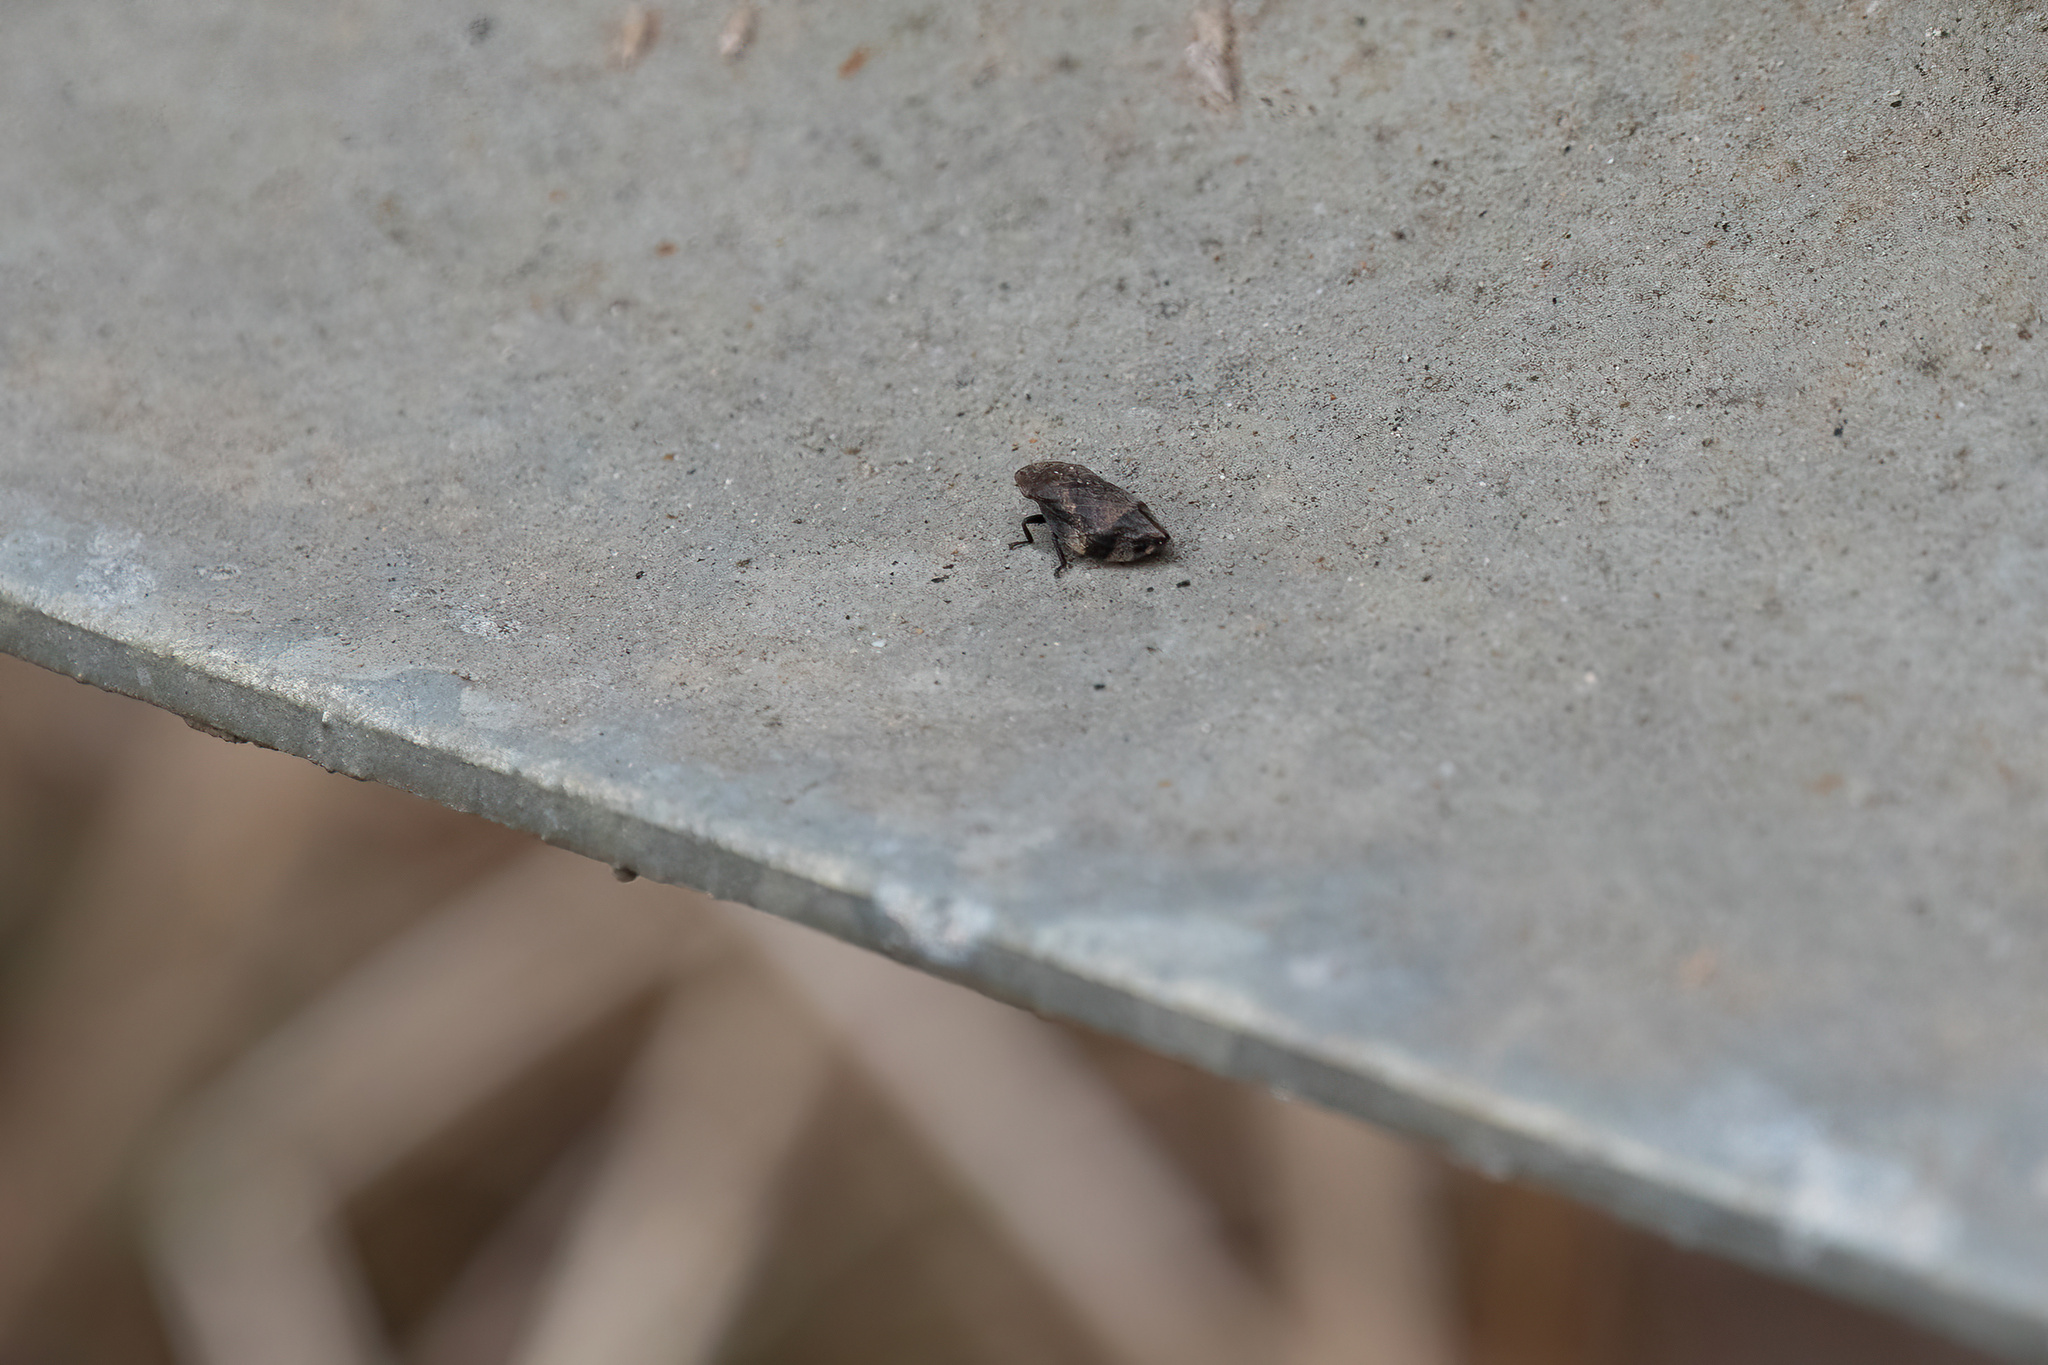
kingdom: Animalia
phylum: Arthropoda
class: Insecta
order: Hemiptera
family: Aphrophoridae
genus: Lepyronia
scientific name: Lepyronia quadrangularis
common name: Diamond-backed spittlebug
